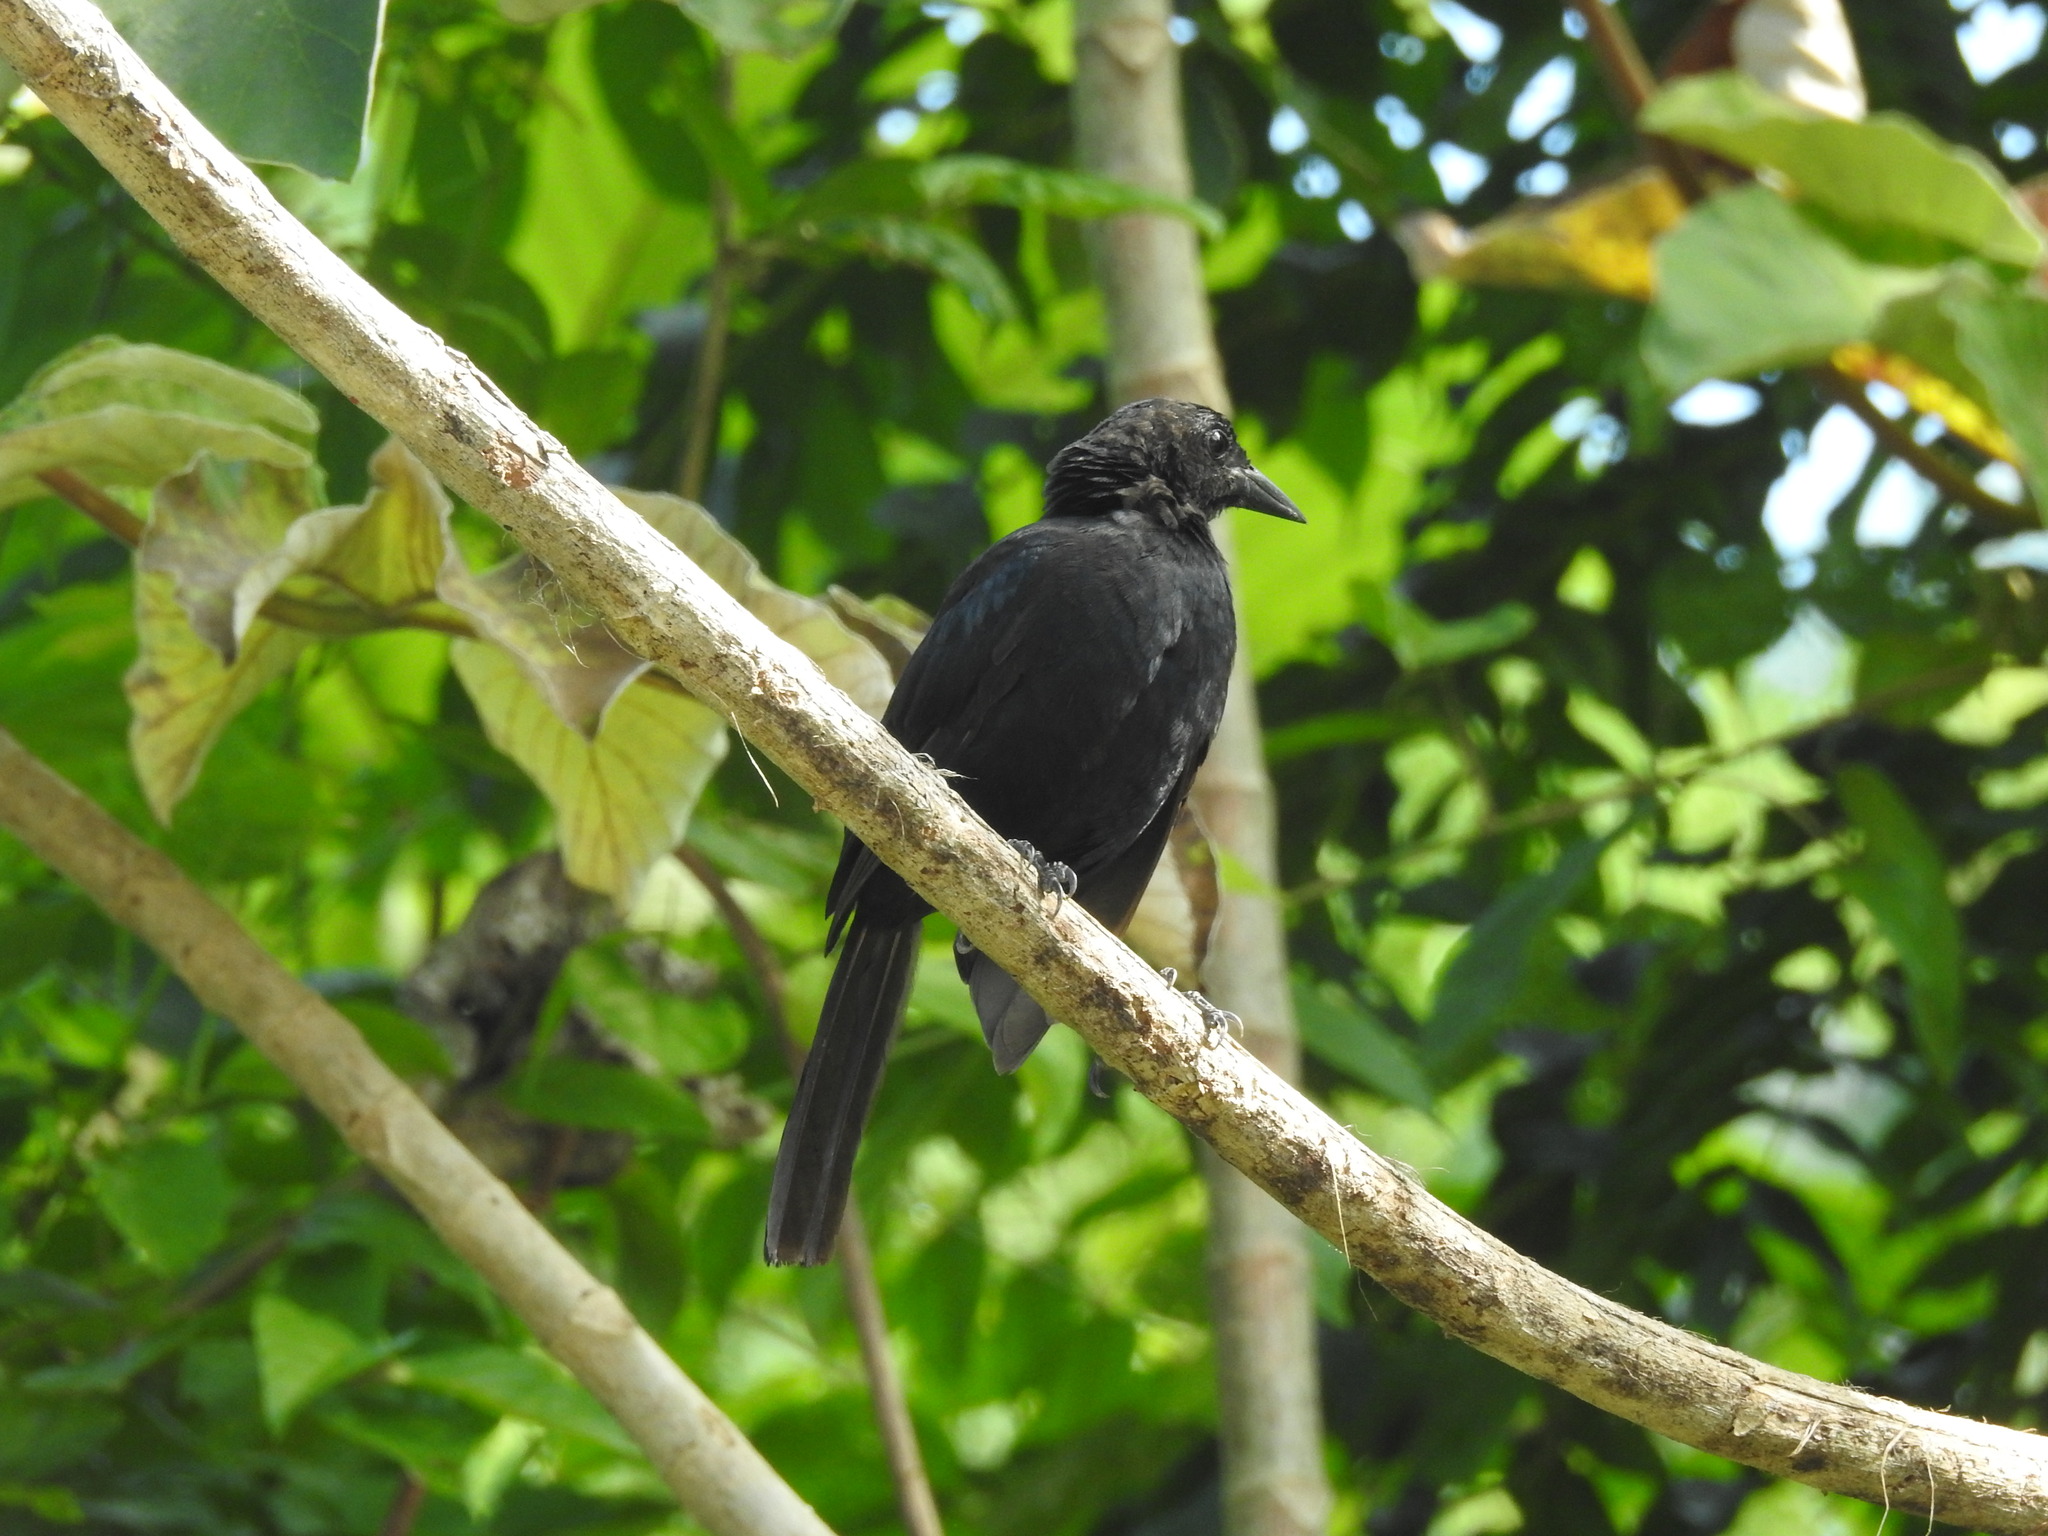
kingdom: Animalia
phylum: Chordata
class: Aves
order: Passeriformes
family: Icteridae
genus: Dives
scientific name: Dives dives
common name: Melodious blackbird
